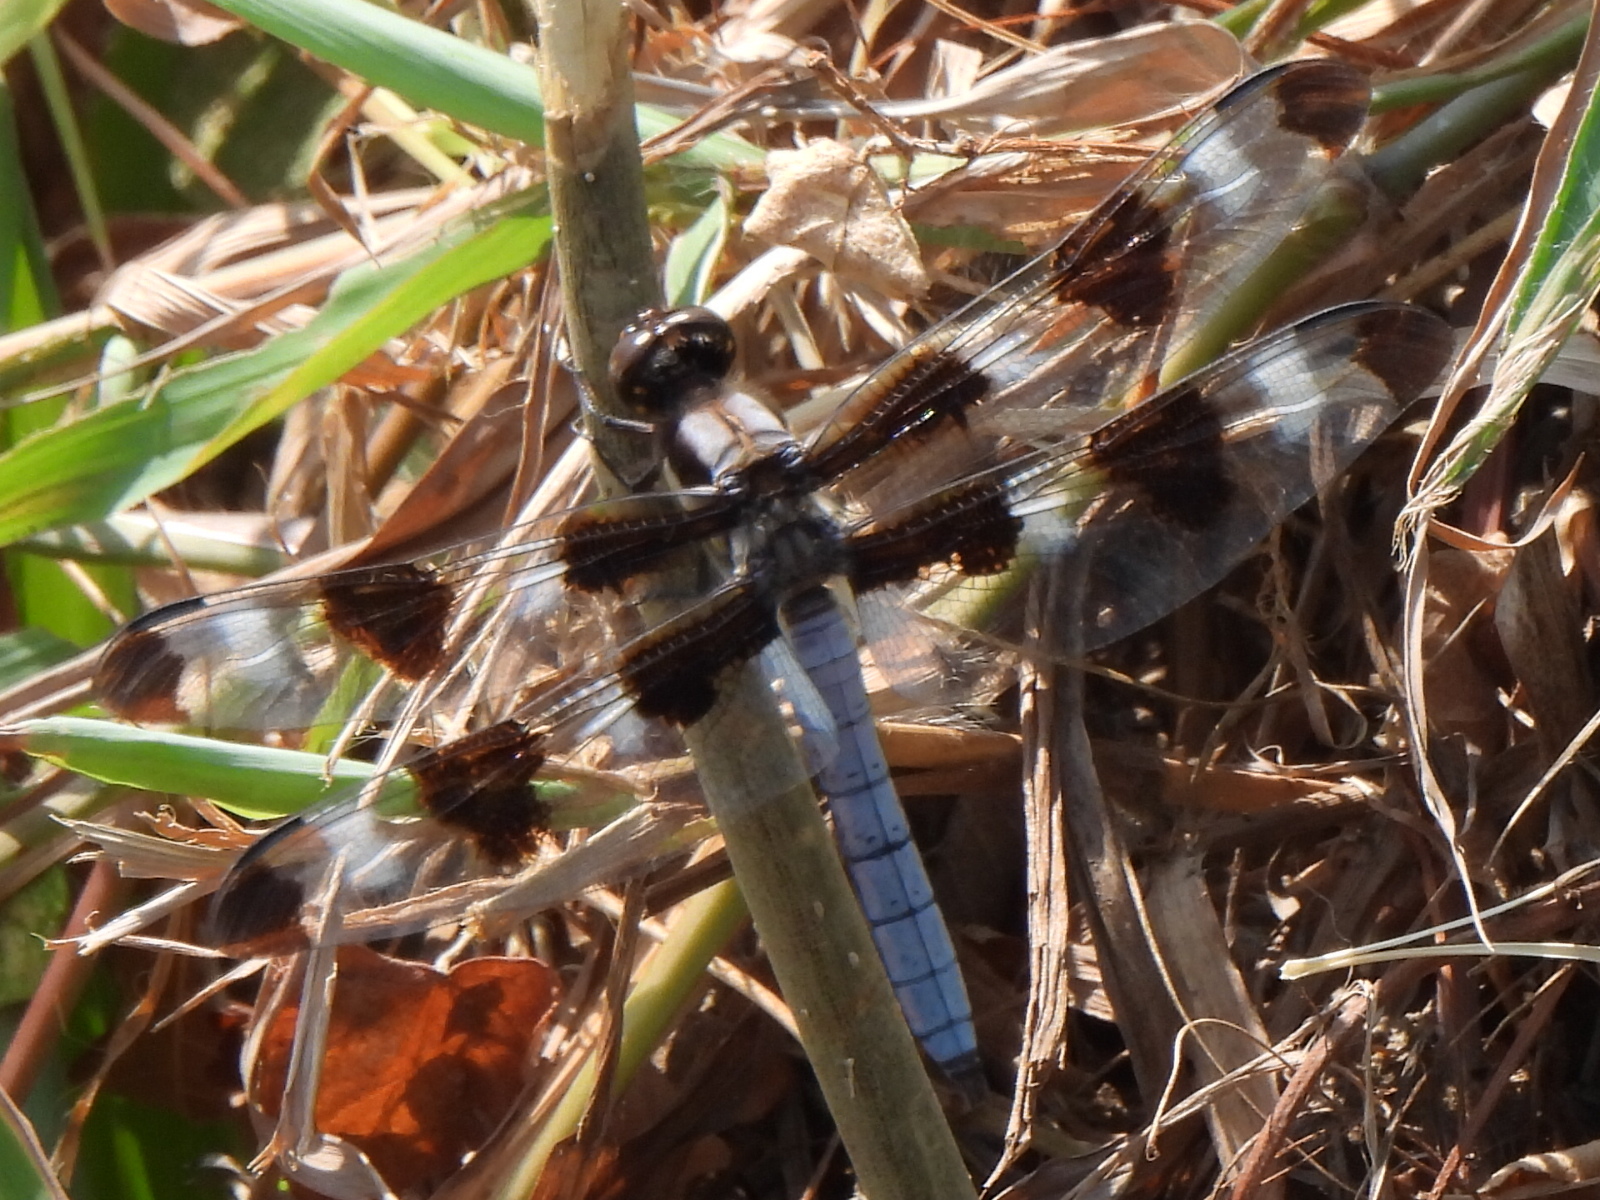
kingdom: Animalia
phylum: Arthropoda
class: Insecta
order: Odonata
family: Libellulidae
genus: Libellula
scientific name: Libellula pulchella
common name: Twelve-spotted skimmer
